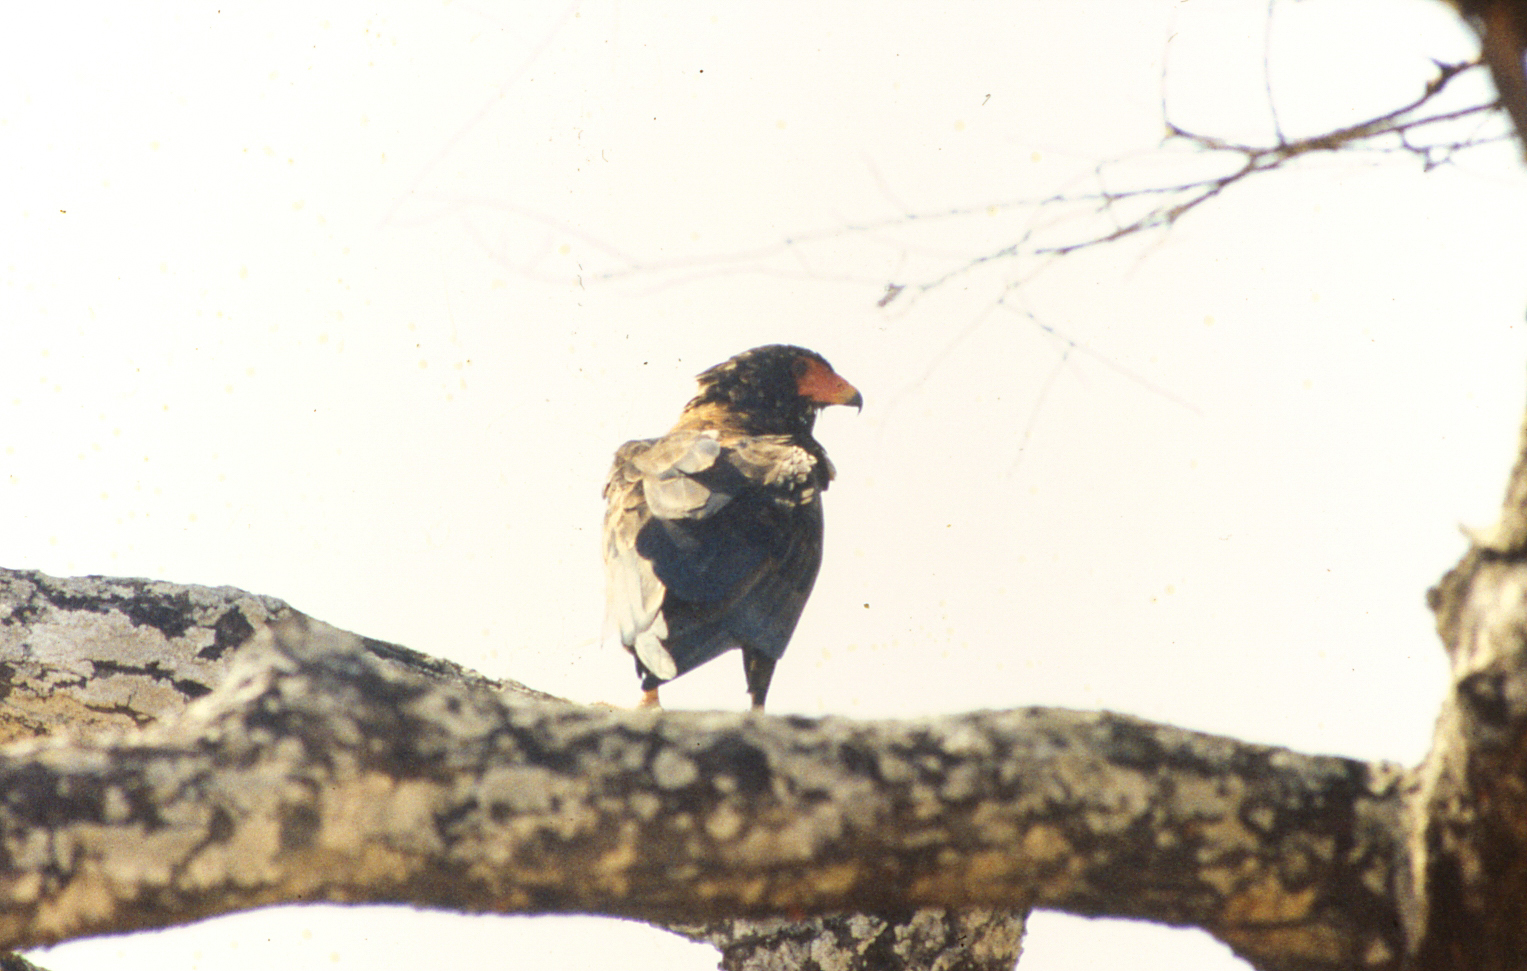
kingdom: Animalia
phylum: Chordata
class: Aves
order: Accipitriformes
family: Accipitridae
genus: Terathopius
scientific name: Terathopius ecaudatus
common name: Bateleur
